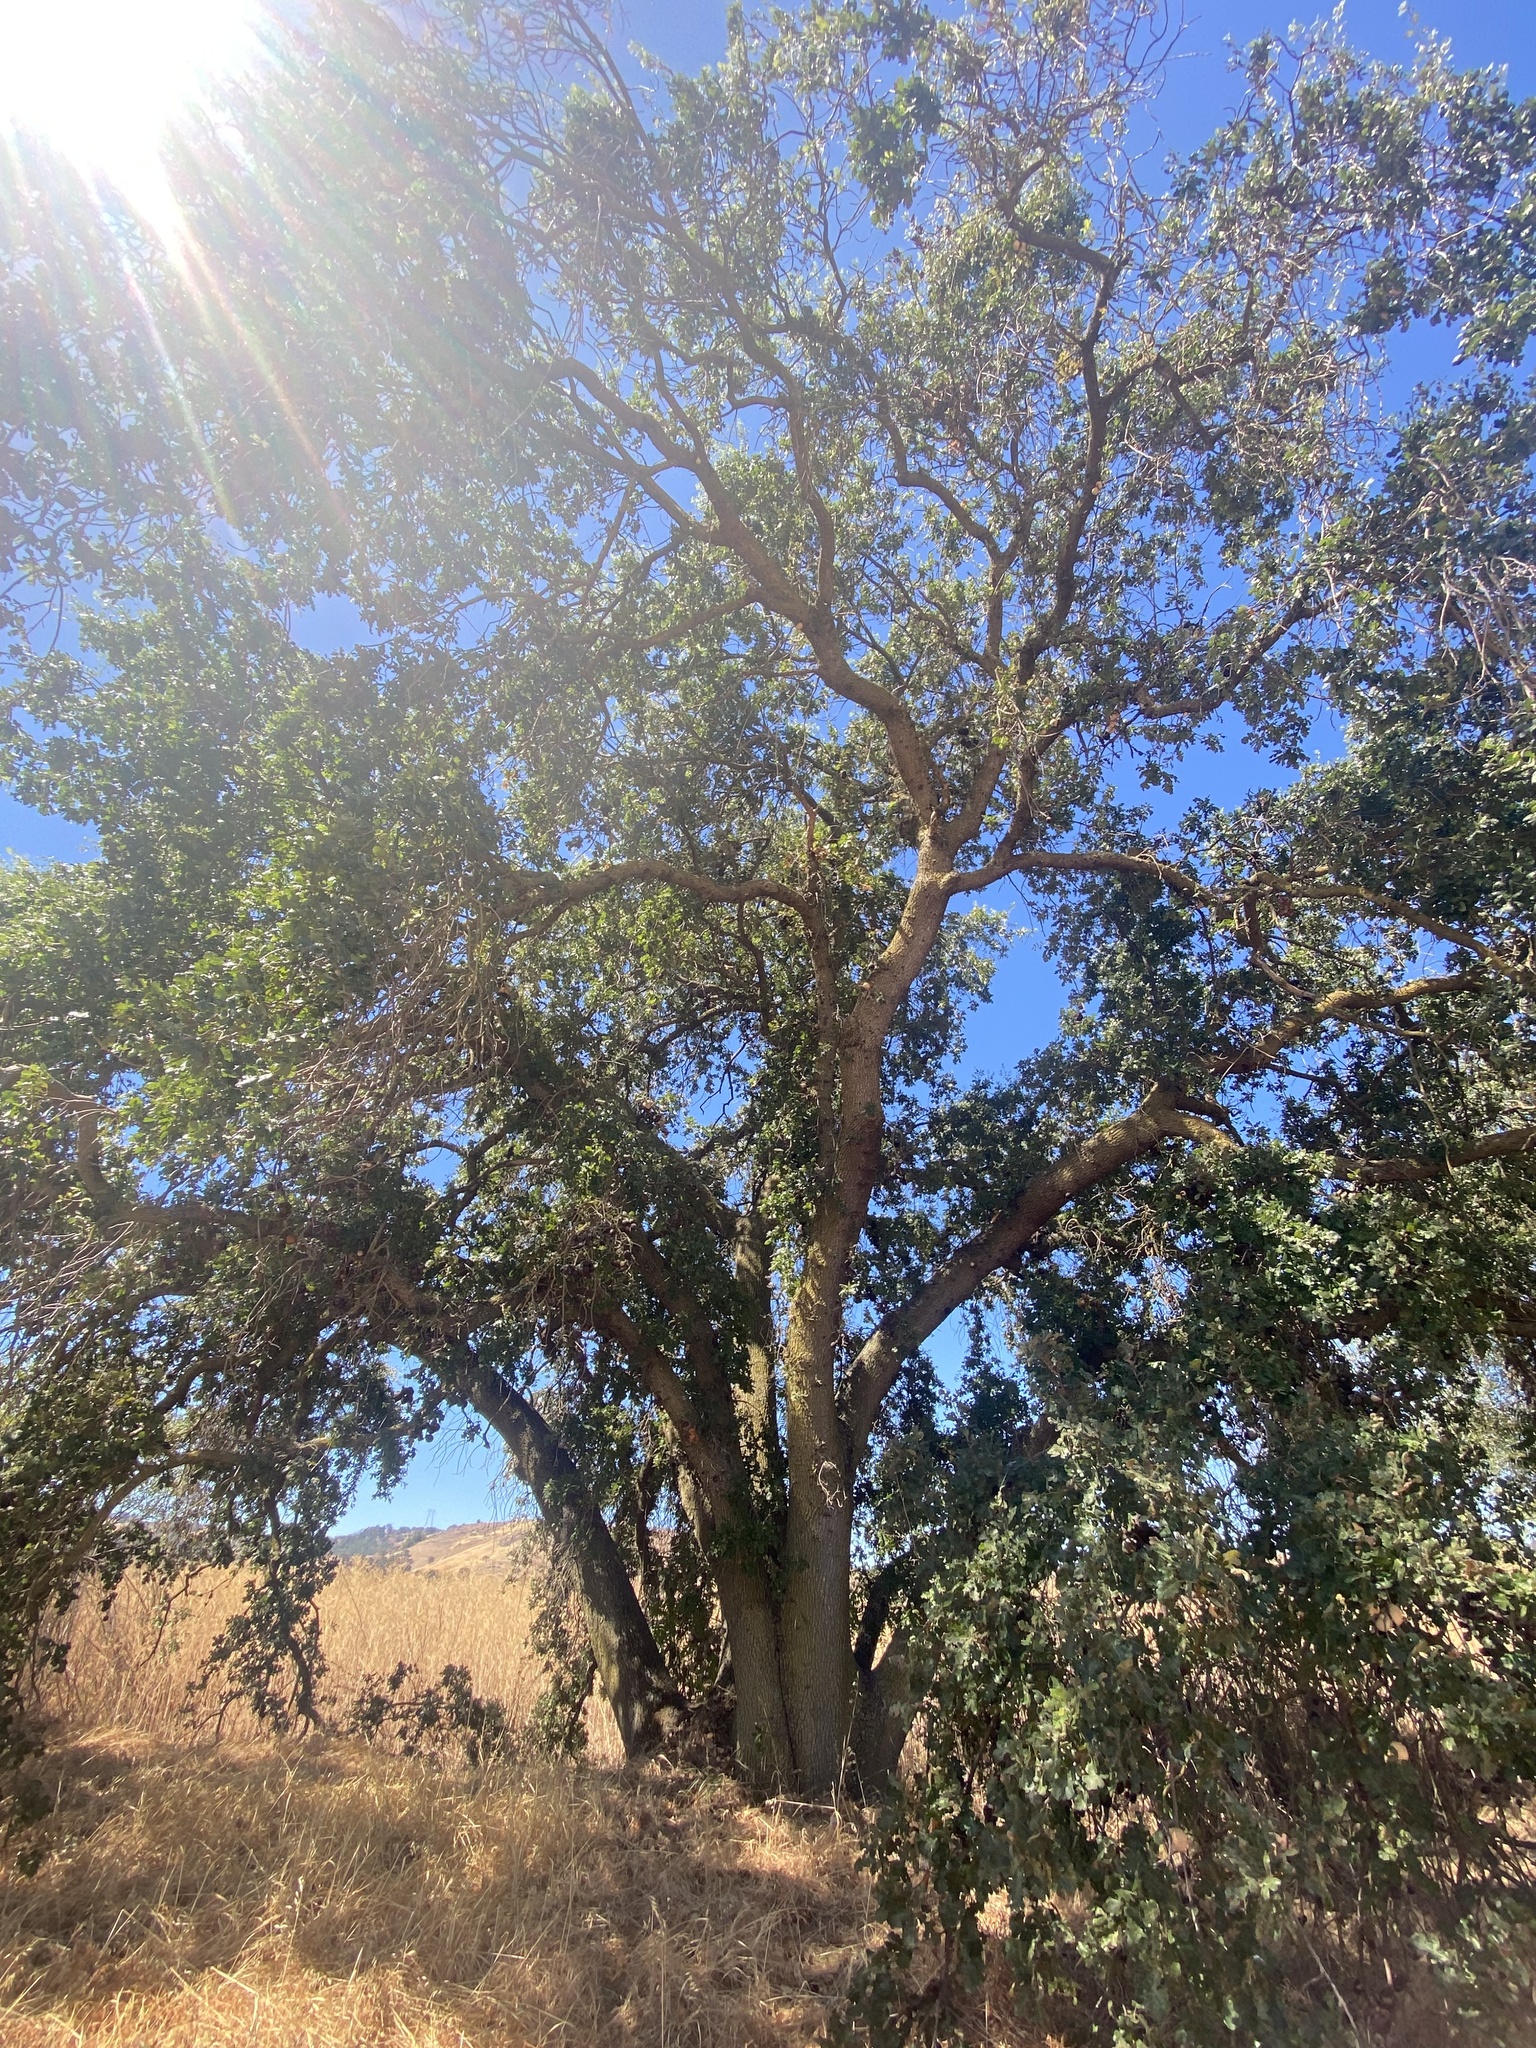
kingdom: Plantae
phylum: Tracheophyta
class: Magnoliopsida
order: Fagales
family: Fagaceae
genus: Quercus
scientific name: Quercus lobata
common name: Valley oak
